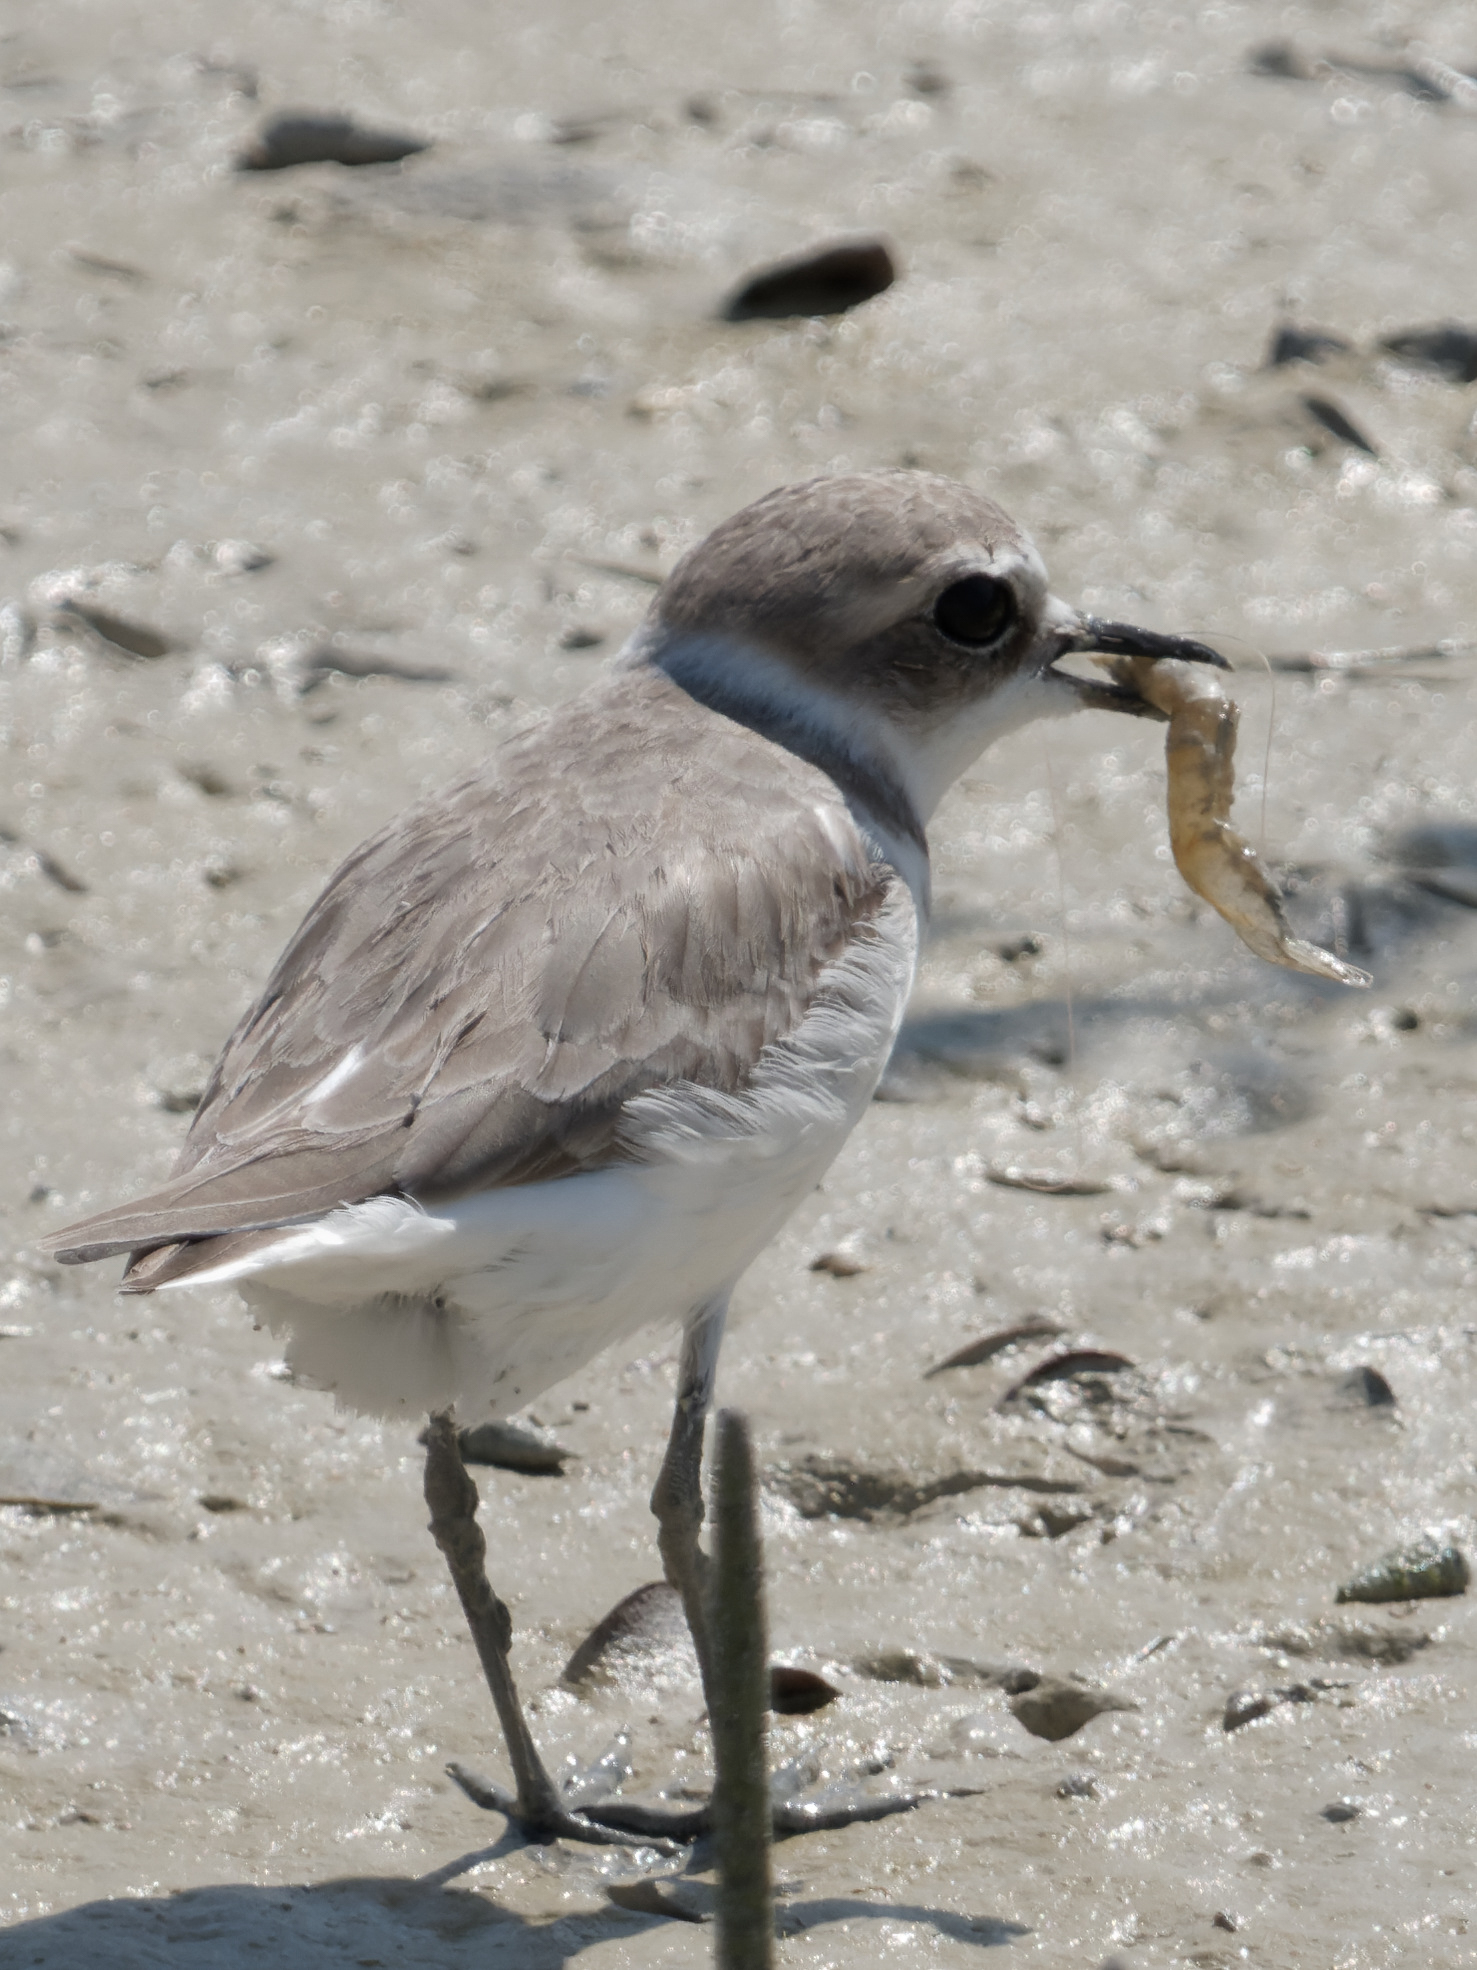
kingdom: Animalia
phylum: Chordata
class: Aves
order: Charadriiformes
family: Charadriidae
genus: Charadrius
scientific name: Charadrius alexandrinus
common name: Kentish plover
